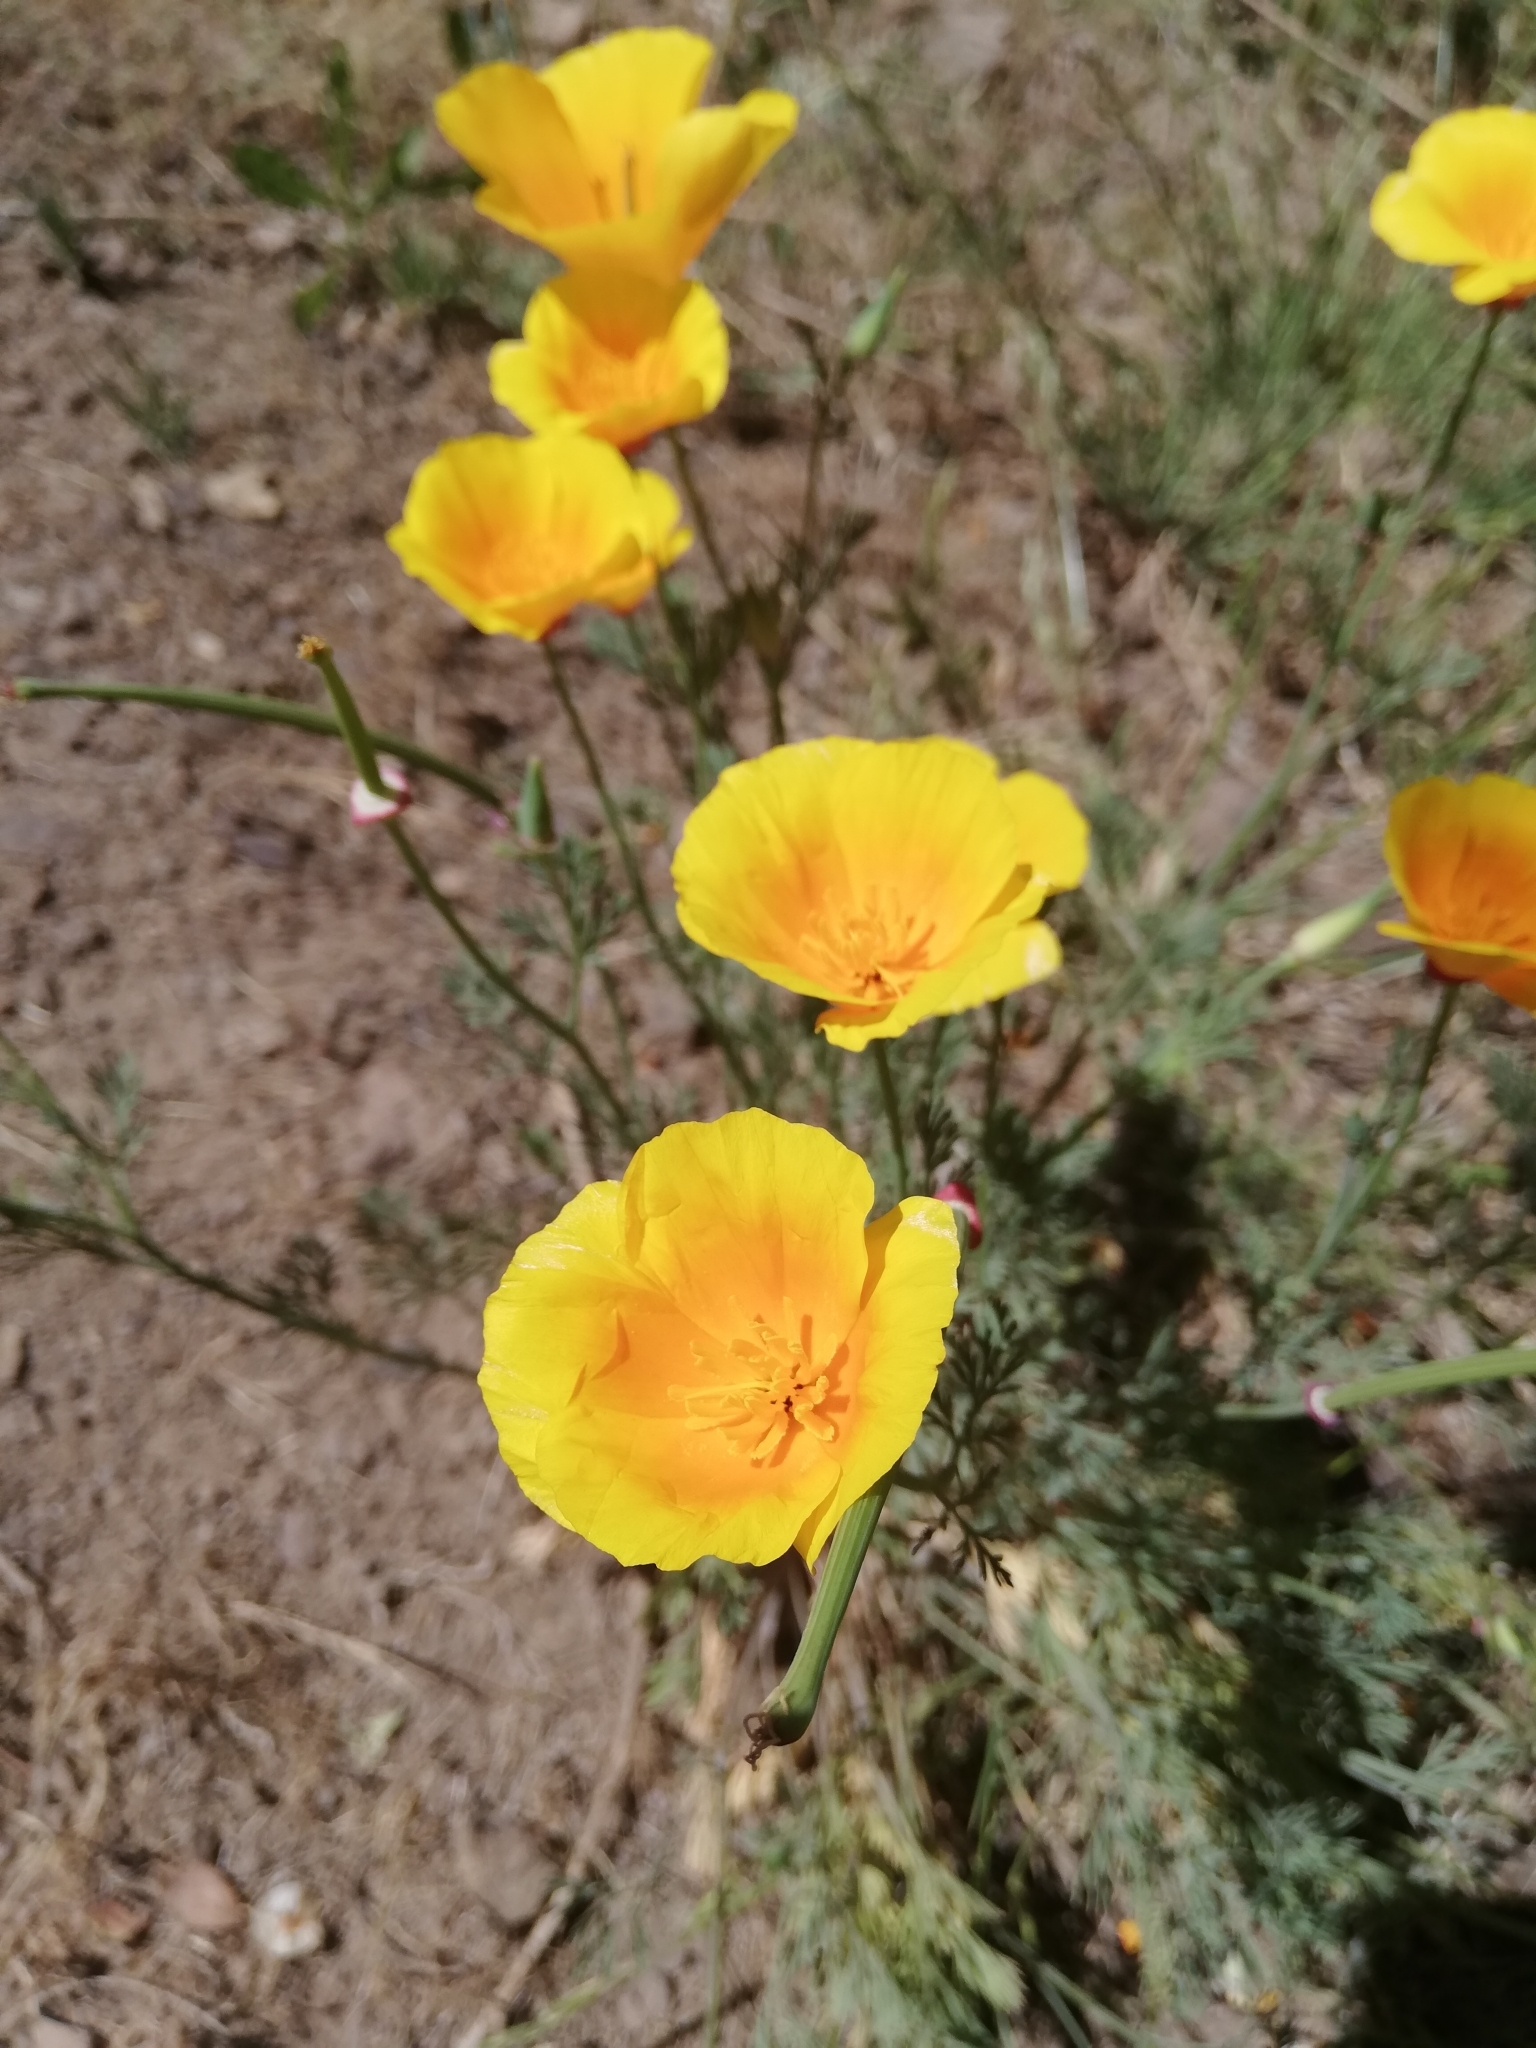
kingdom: Plantae
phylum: Tracheophyta
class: Magnoliopsida
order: Ranunculales
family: Papaveraceae
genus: Eschscholzia
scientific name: Eschscholzia californica
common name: California poppy
